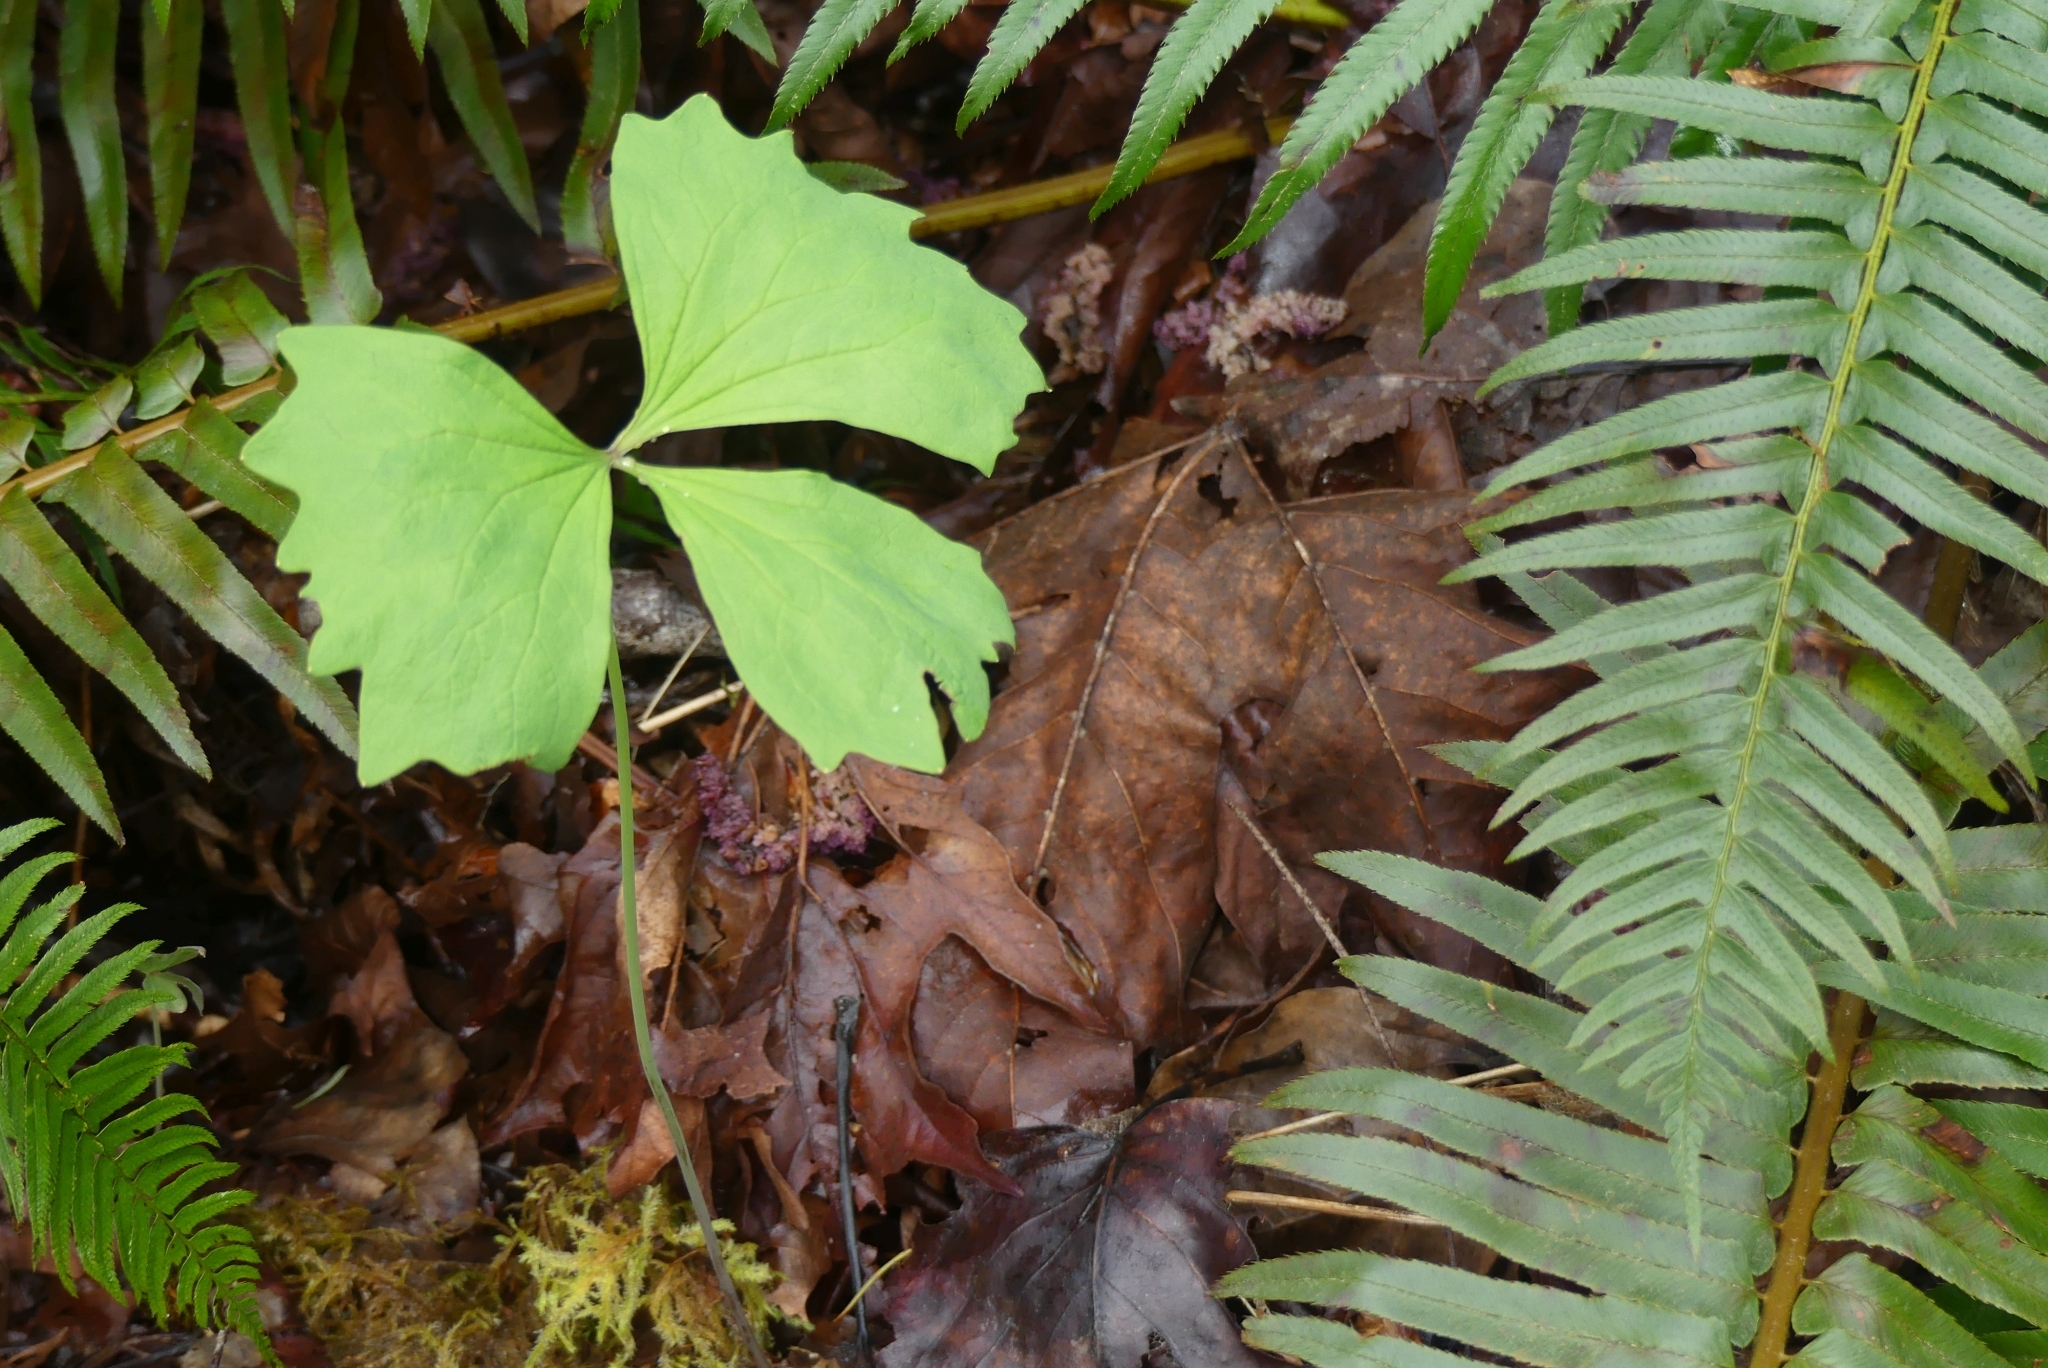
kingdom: Plantae
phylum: Tracheophyta
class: Magnoliopsida
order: Ranunculales
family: Berberidaceae
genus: Achlys
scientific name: Achlys triphylla
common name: Vanilla-leaf
